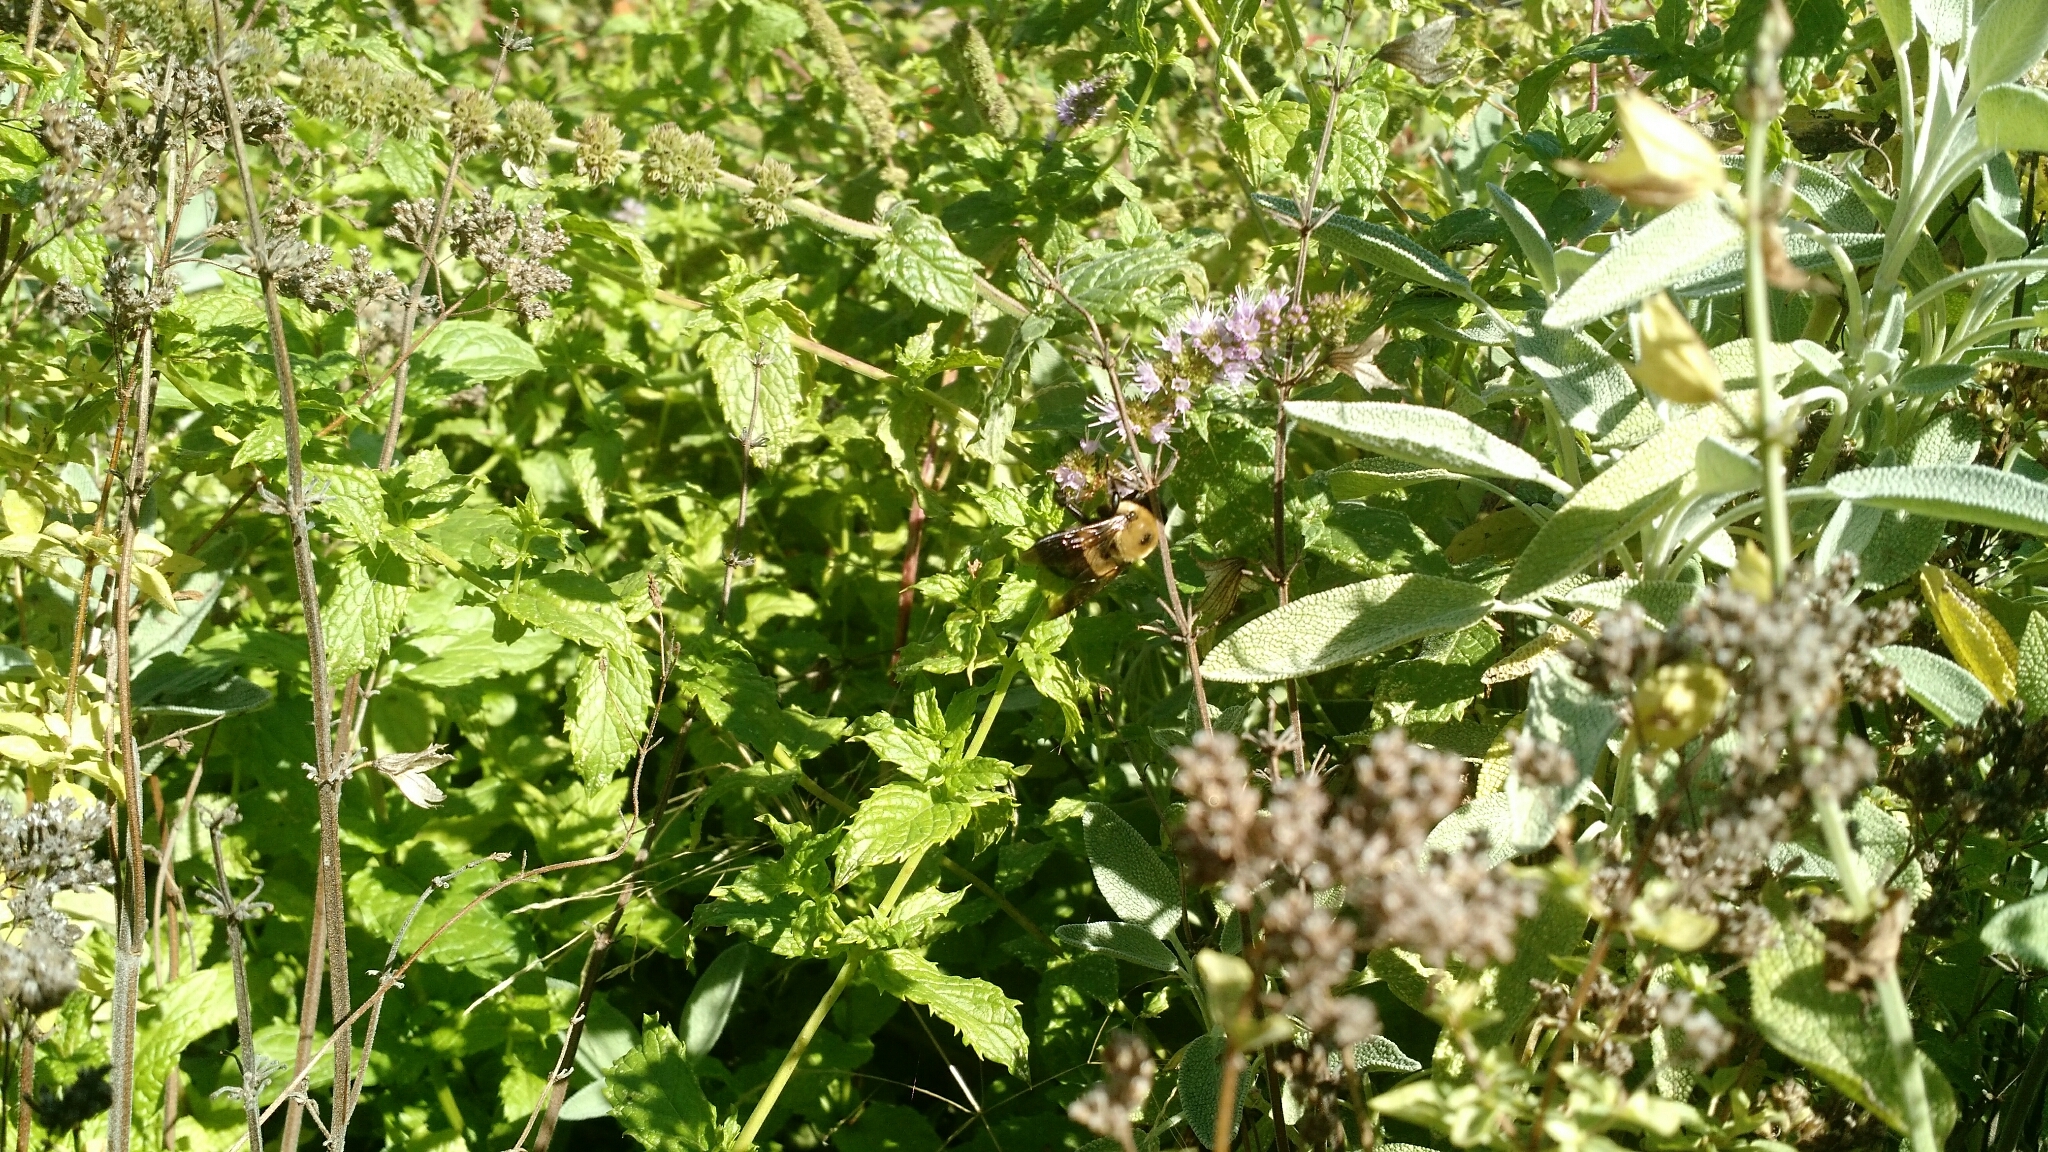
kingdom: Animalia
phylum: Arthropoda
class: Insecta
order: Hymenoptera
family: Apidae
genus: Xylocopa
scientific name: Xylocopa virginica
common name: Carpenter bee
